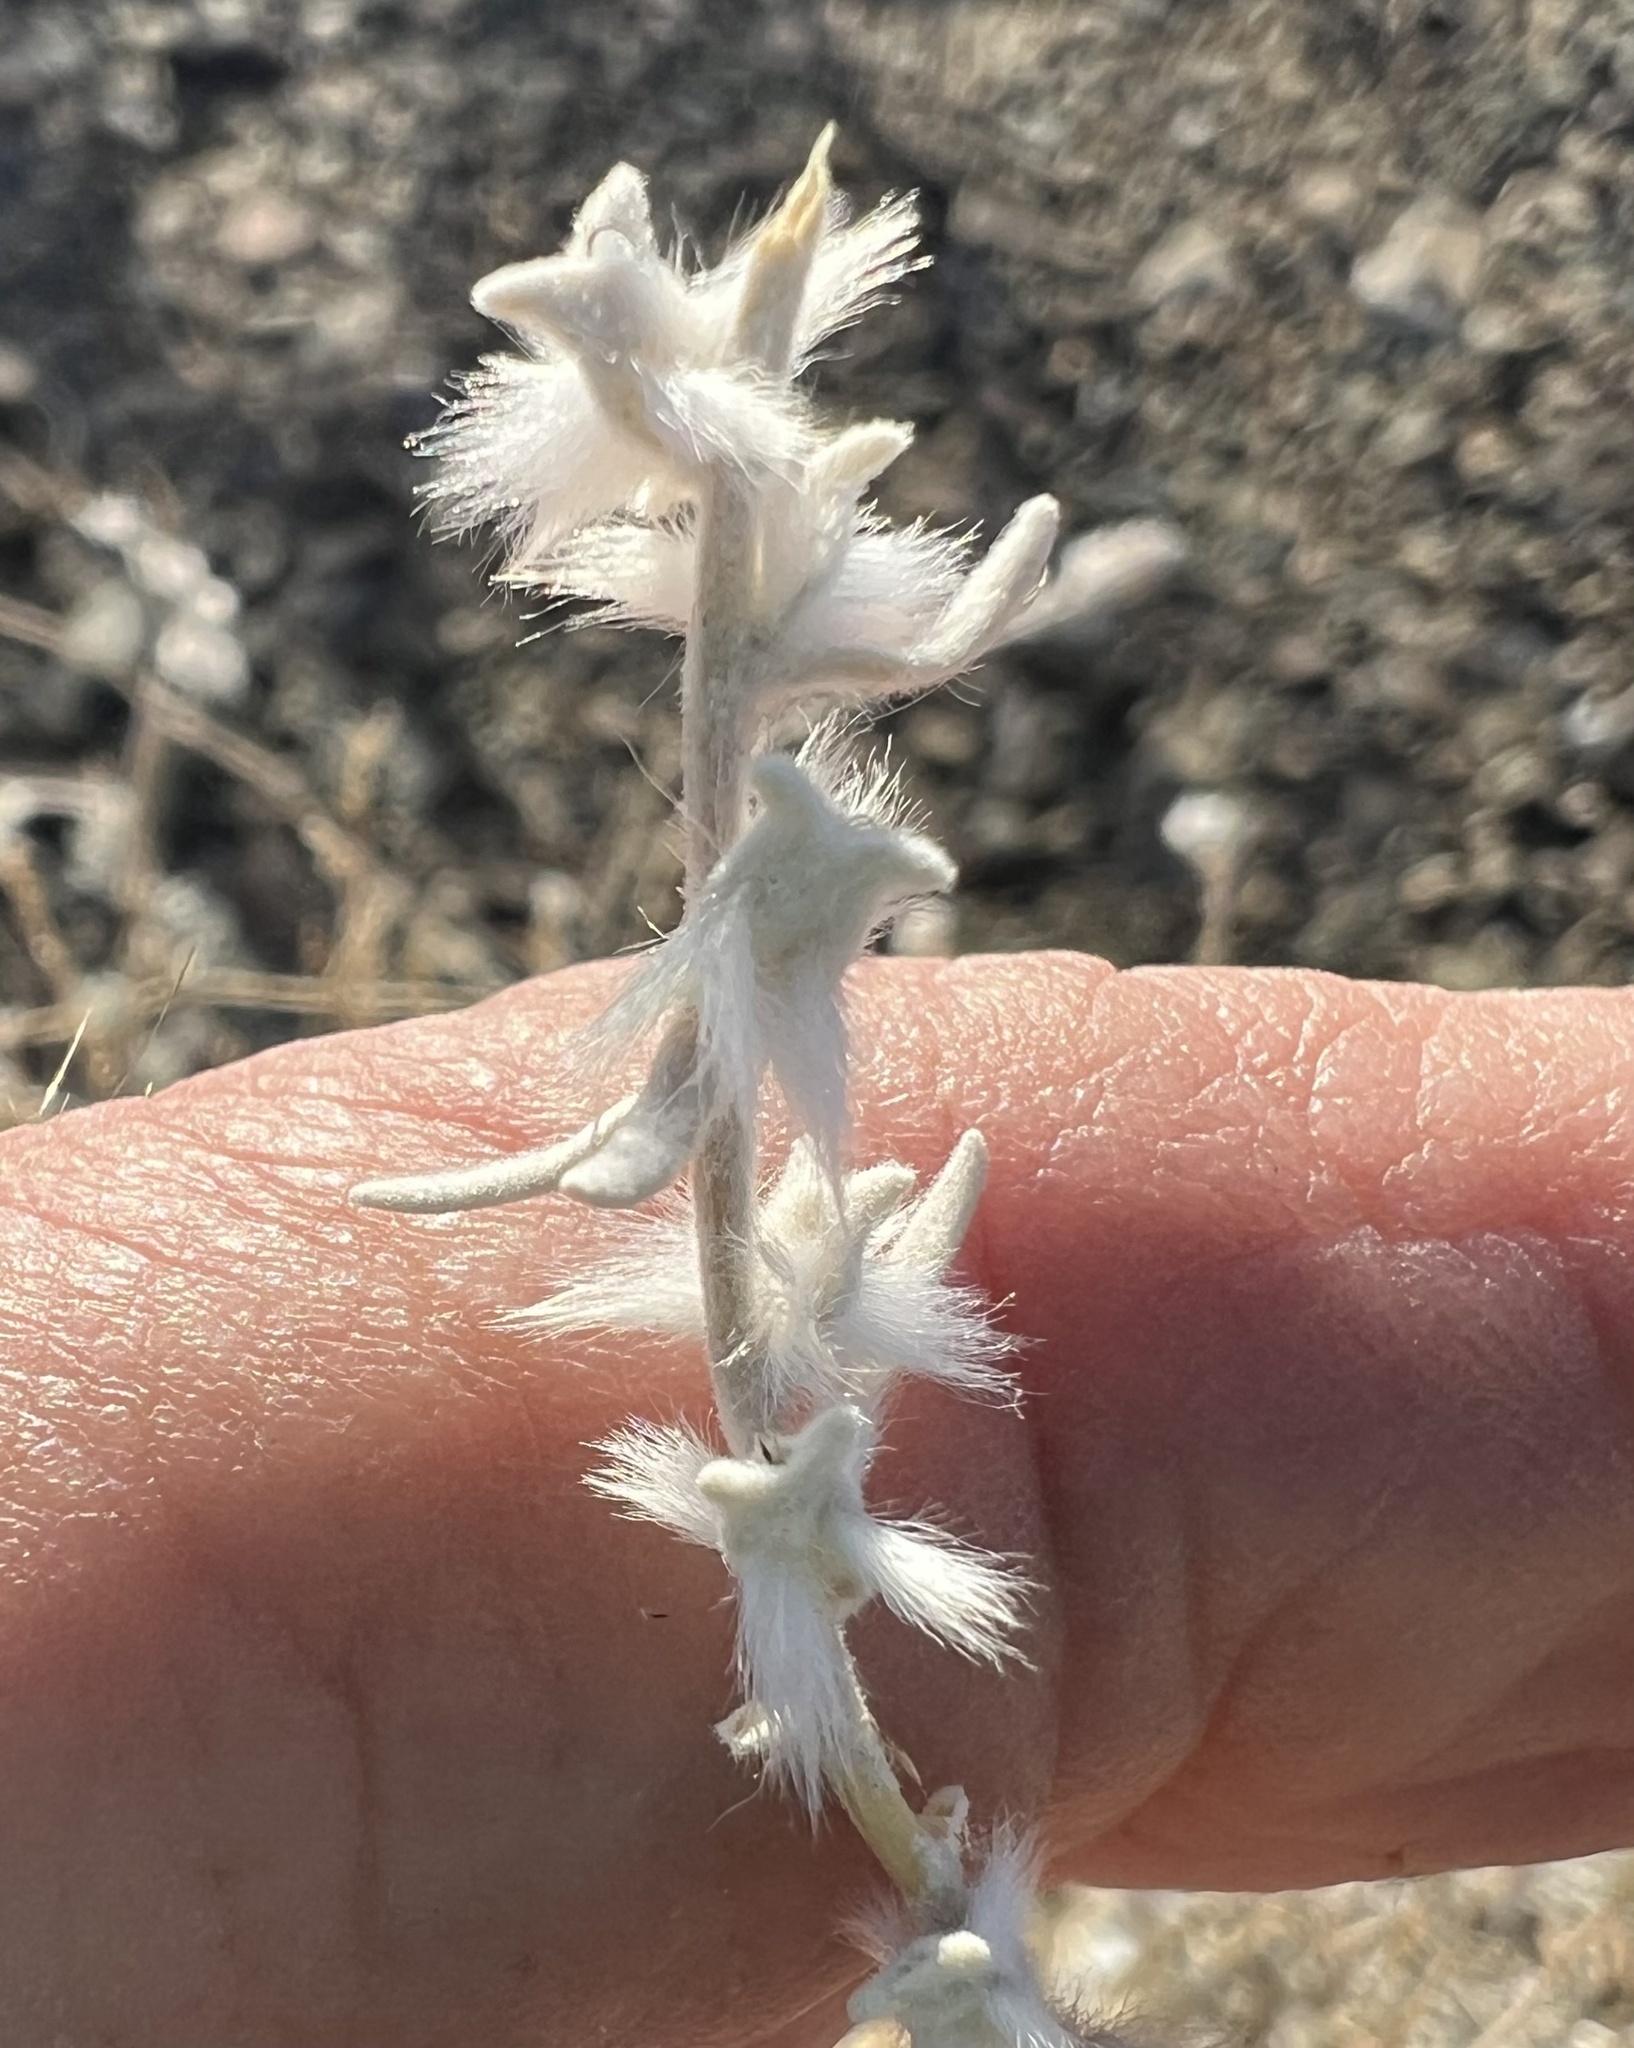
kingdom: Plantae
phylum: Tracheophyta
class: Magnoliopsida
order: Caryophyllales
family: Amaranthaceae
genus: Krascheninnikovia
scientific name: Krascheninnikovia lanata
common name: Winterfat
